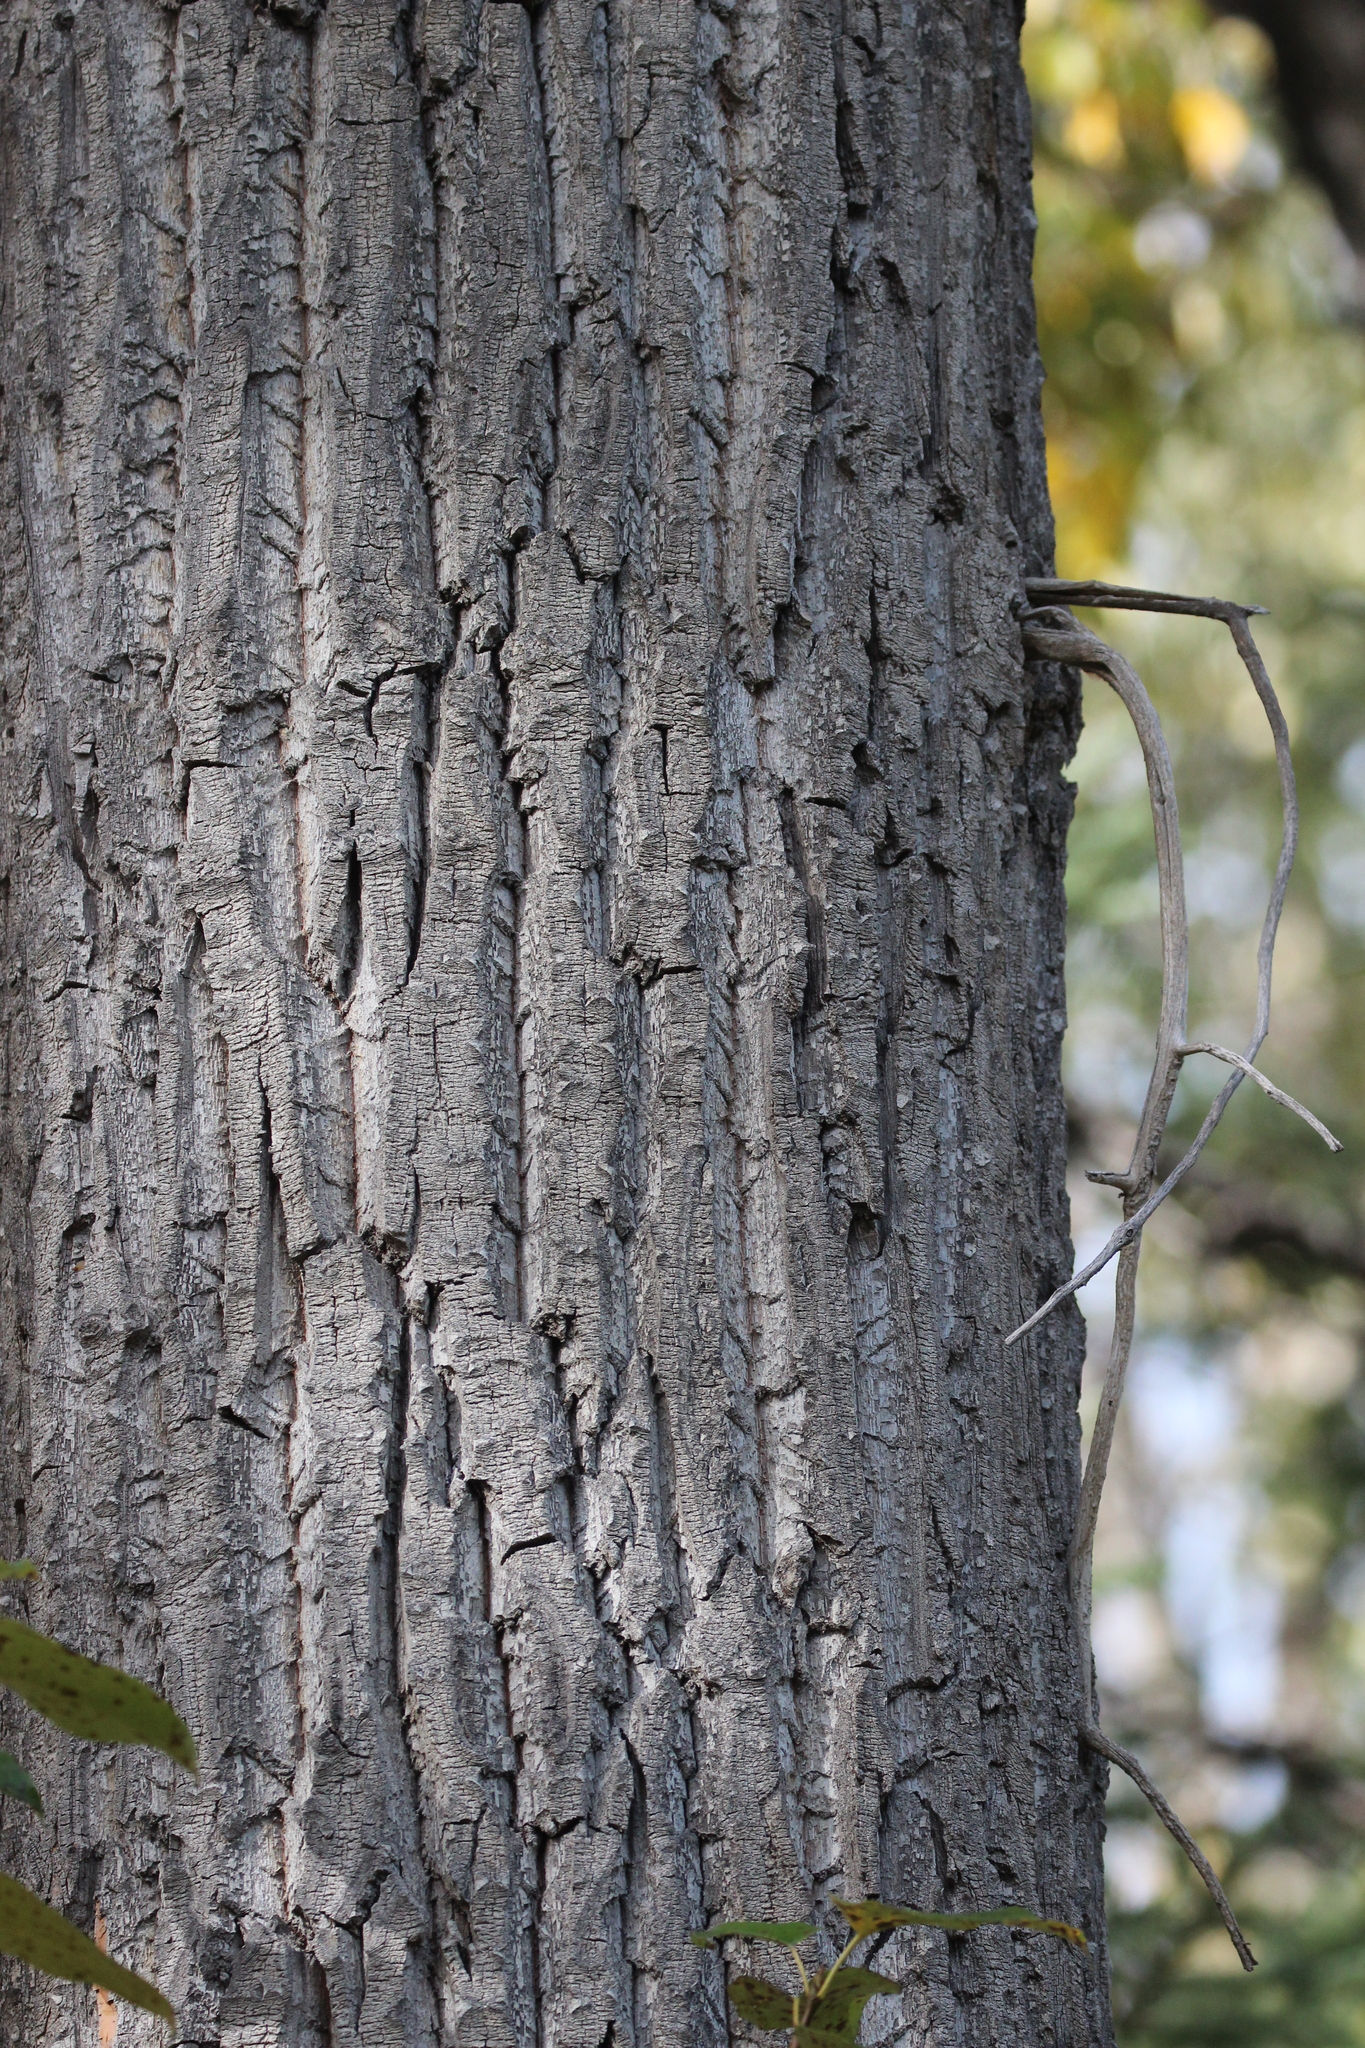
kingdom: Plantae
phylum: Tracheophyta
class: Magnoliopsida
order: Malpighiales
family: Salicaceae
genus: Populus
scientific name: Populus balsamifera
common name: Balsam poplar
